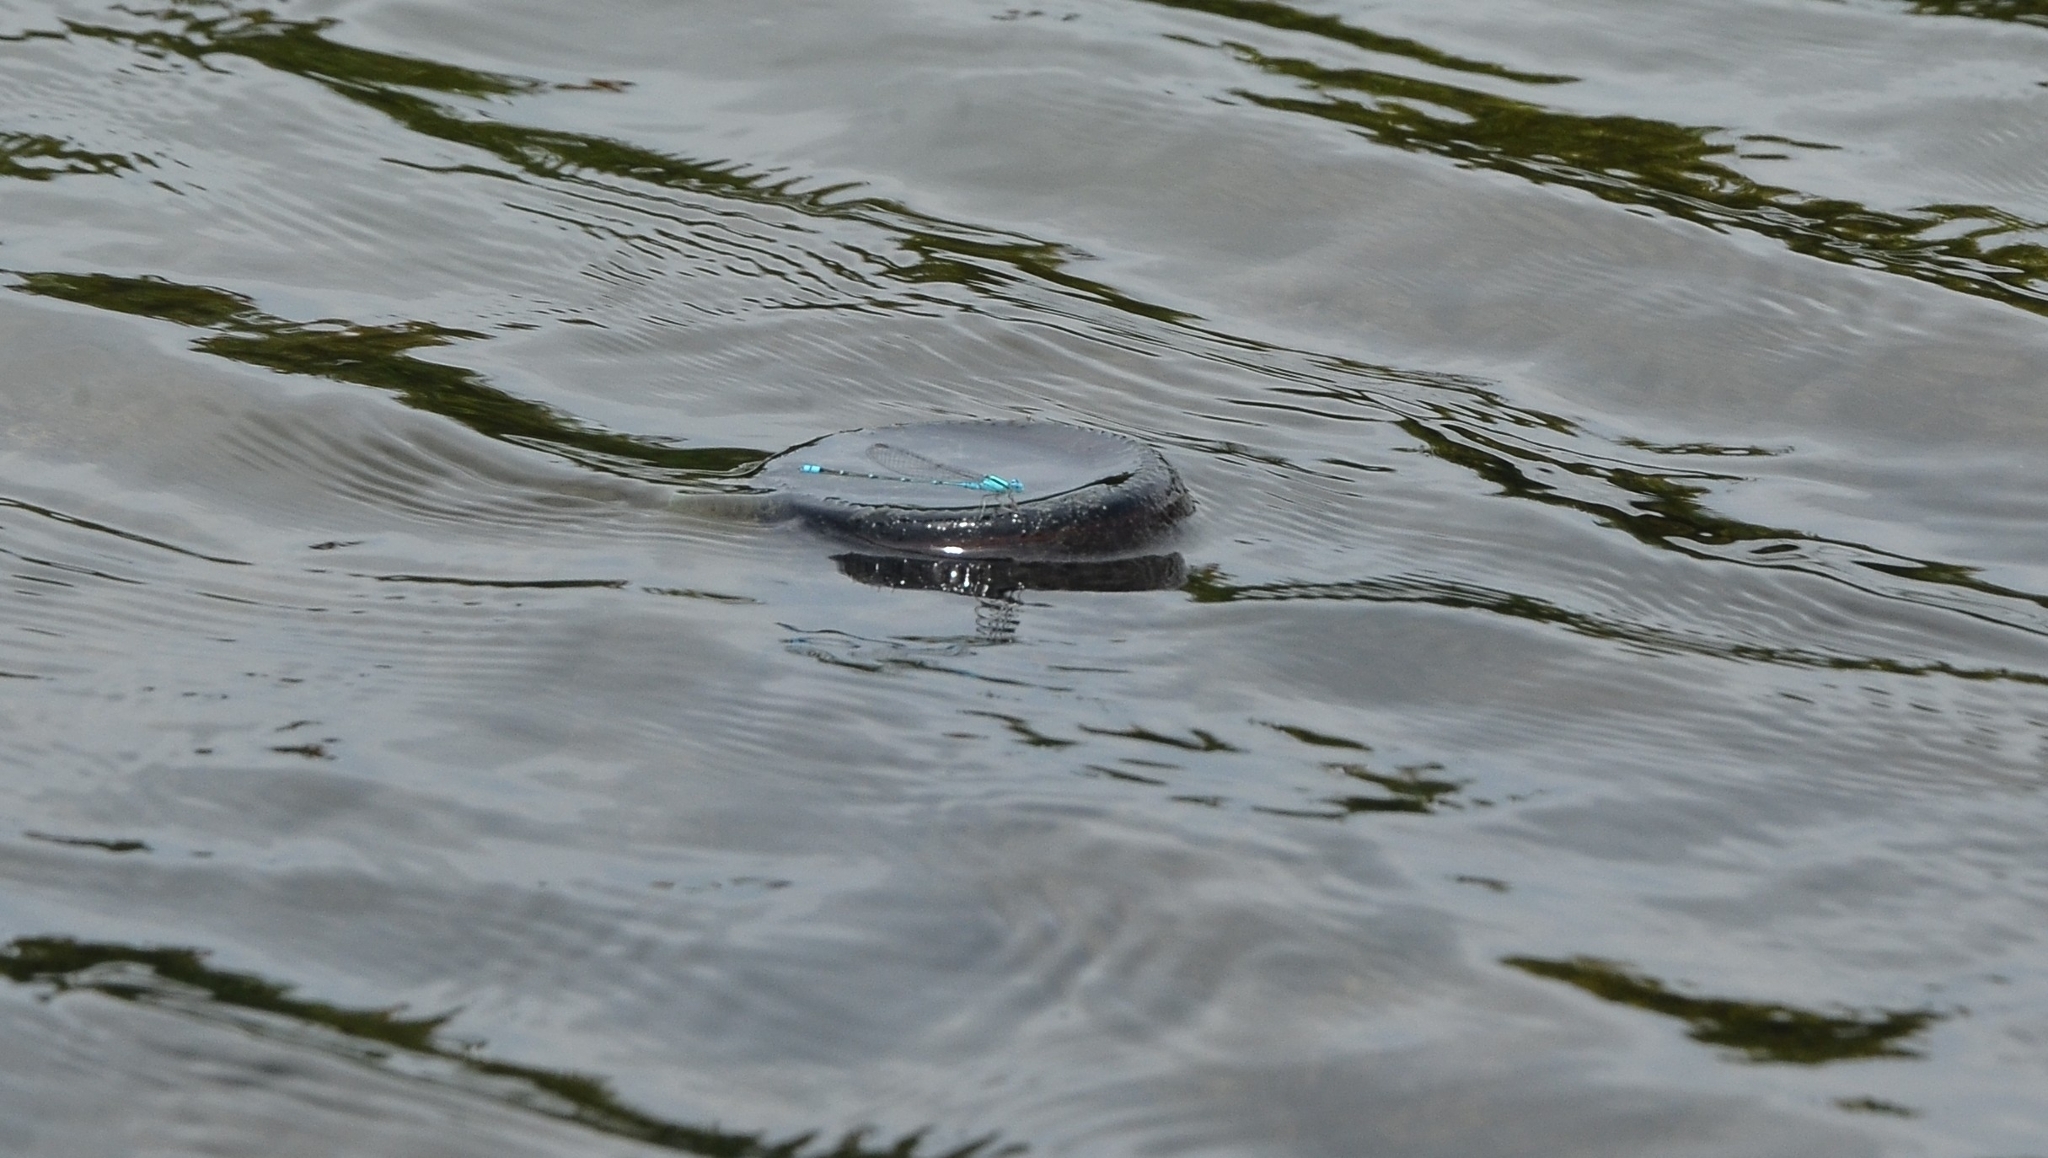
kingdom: Animalia
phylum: Arthropoda
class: Insecta
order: Odonata
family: Coenagrionidae
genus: Pseudagrion
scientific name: Pseudagrion microcephalum
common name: Blue riverdamsel
